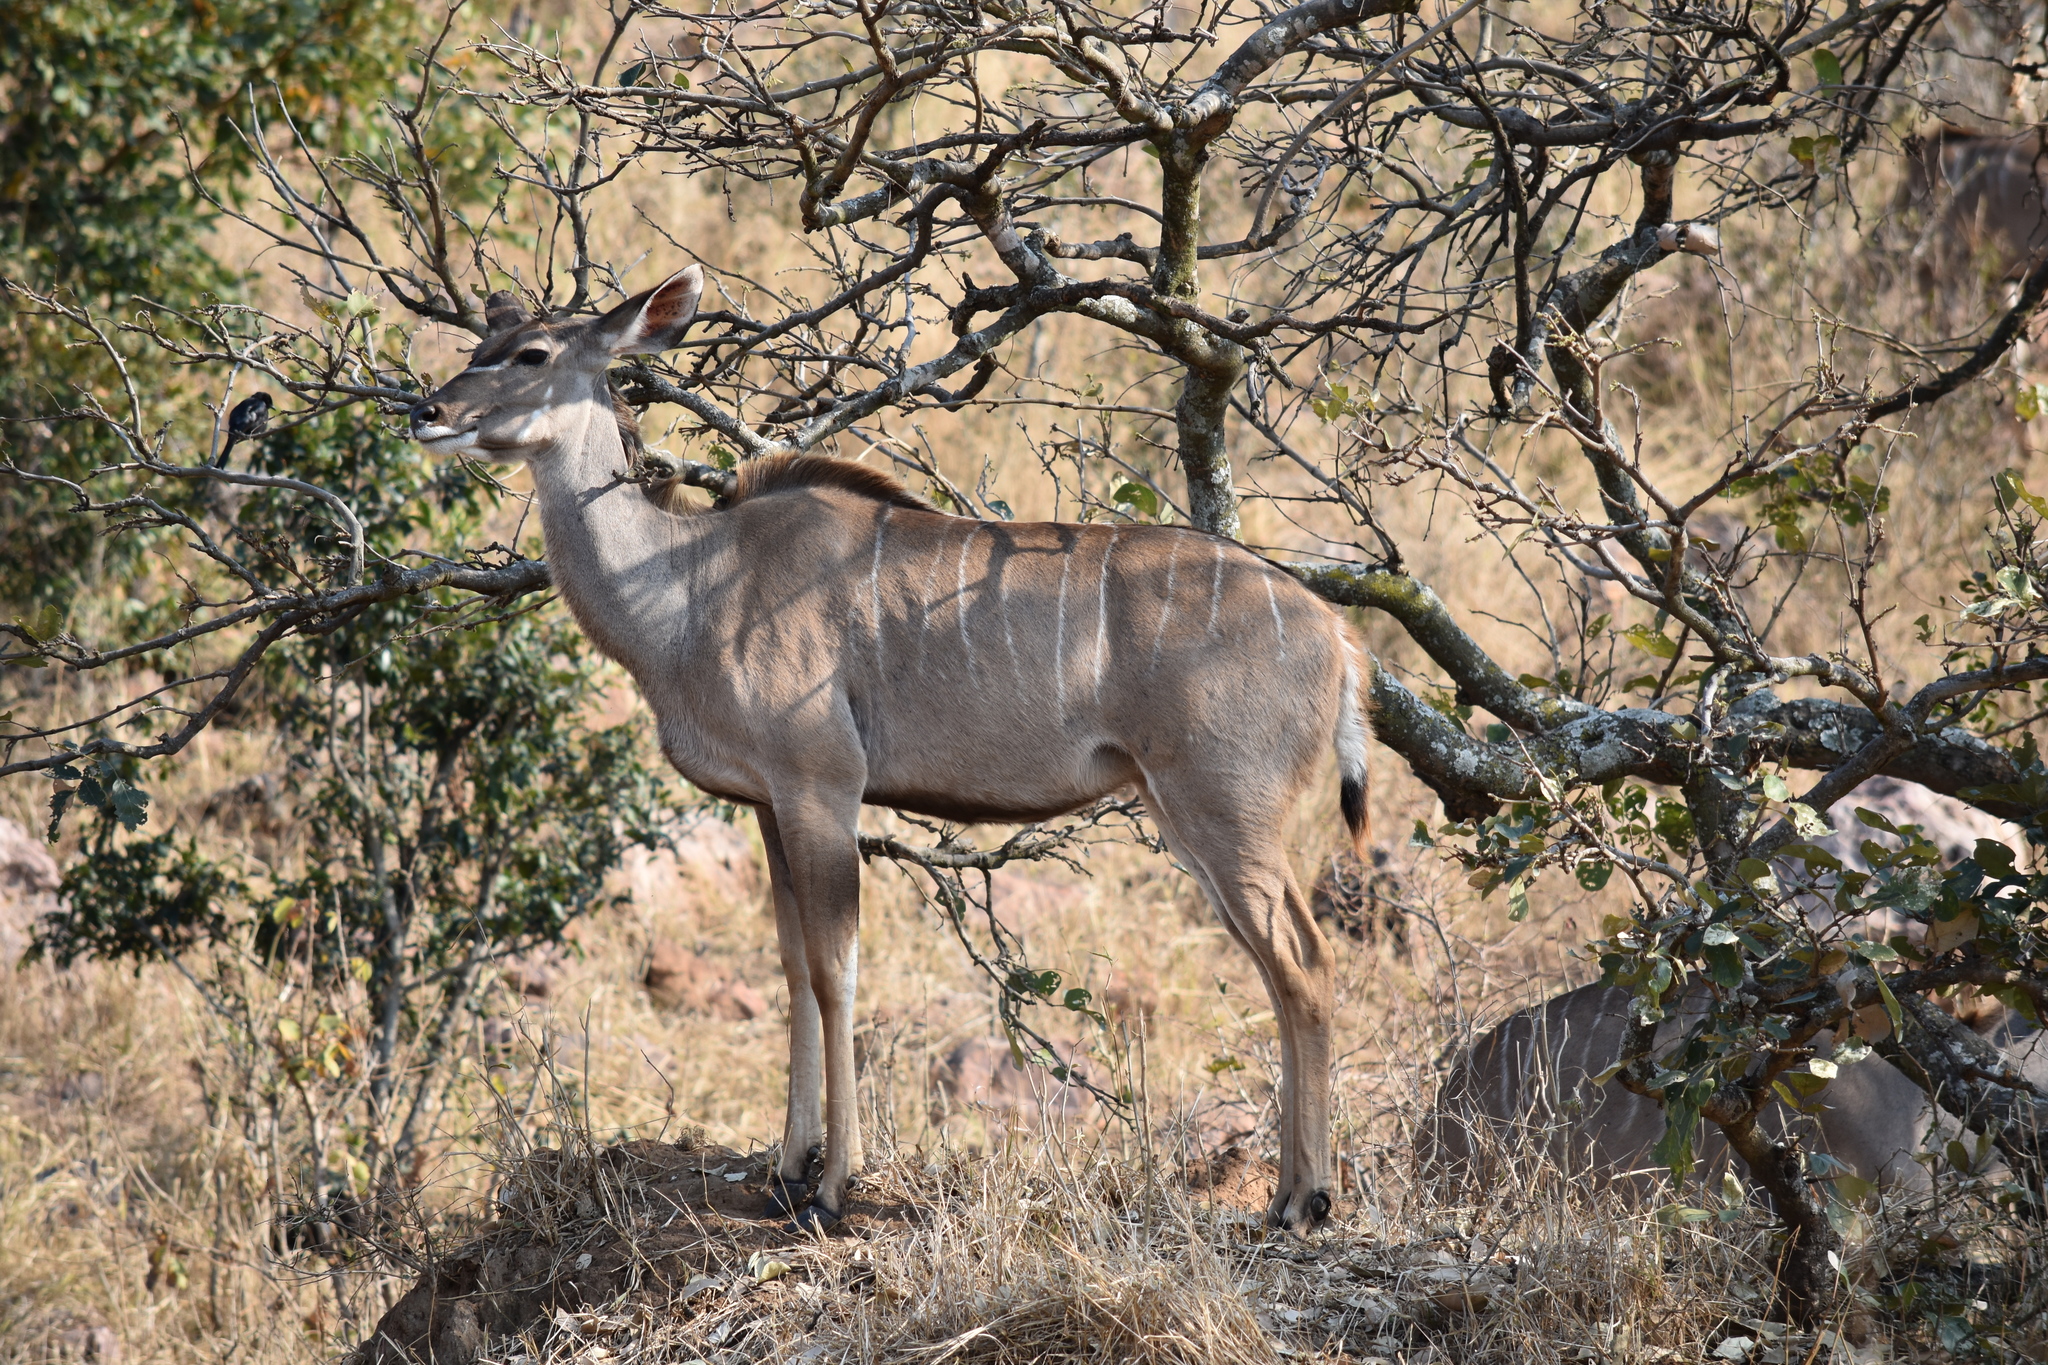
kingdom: Animalia
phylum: Chordata
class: Mammalia
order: Artiodactyla
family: Bovidae
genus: Tragelaphus
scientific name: Tragelaphus strepsiceros
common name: Greater kudu
